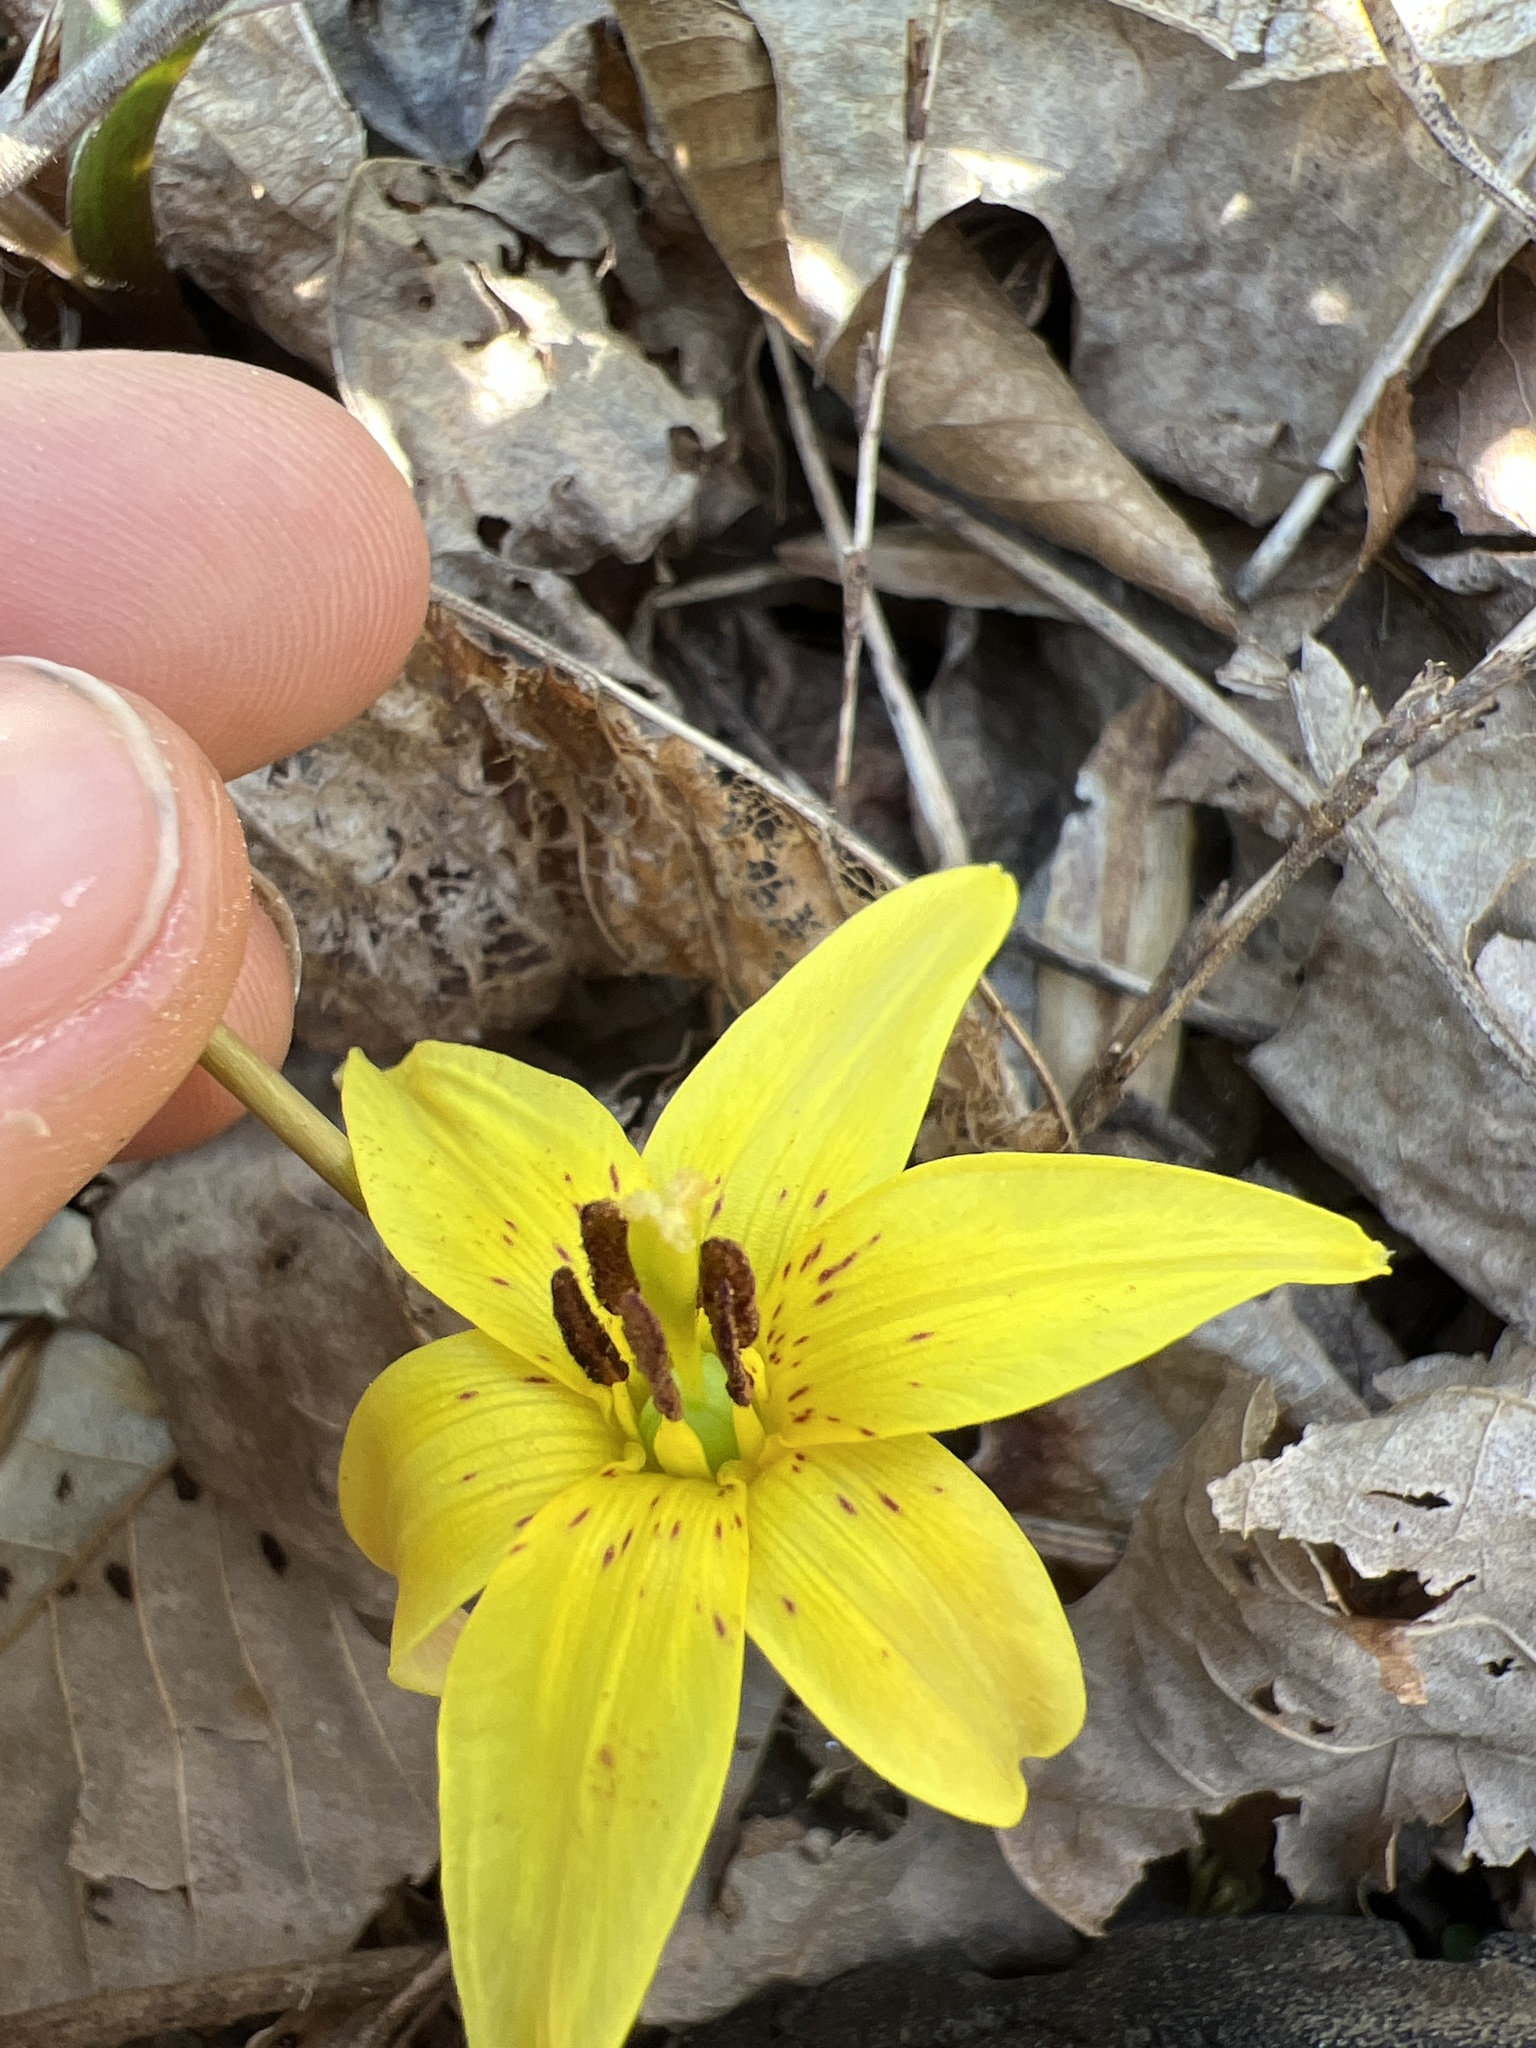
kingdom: Plantae
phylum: Tracheophyta
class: Liliopsida
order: Liliales
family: Liliaceae
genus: Erythronium
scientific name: Erythronium americanum
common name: Yellow adder's-tongue
